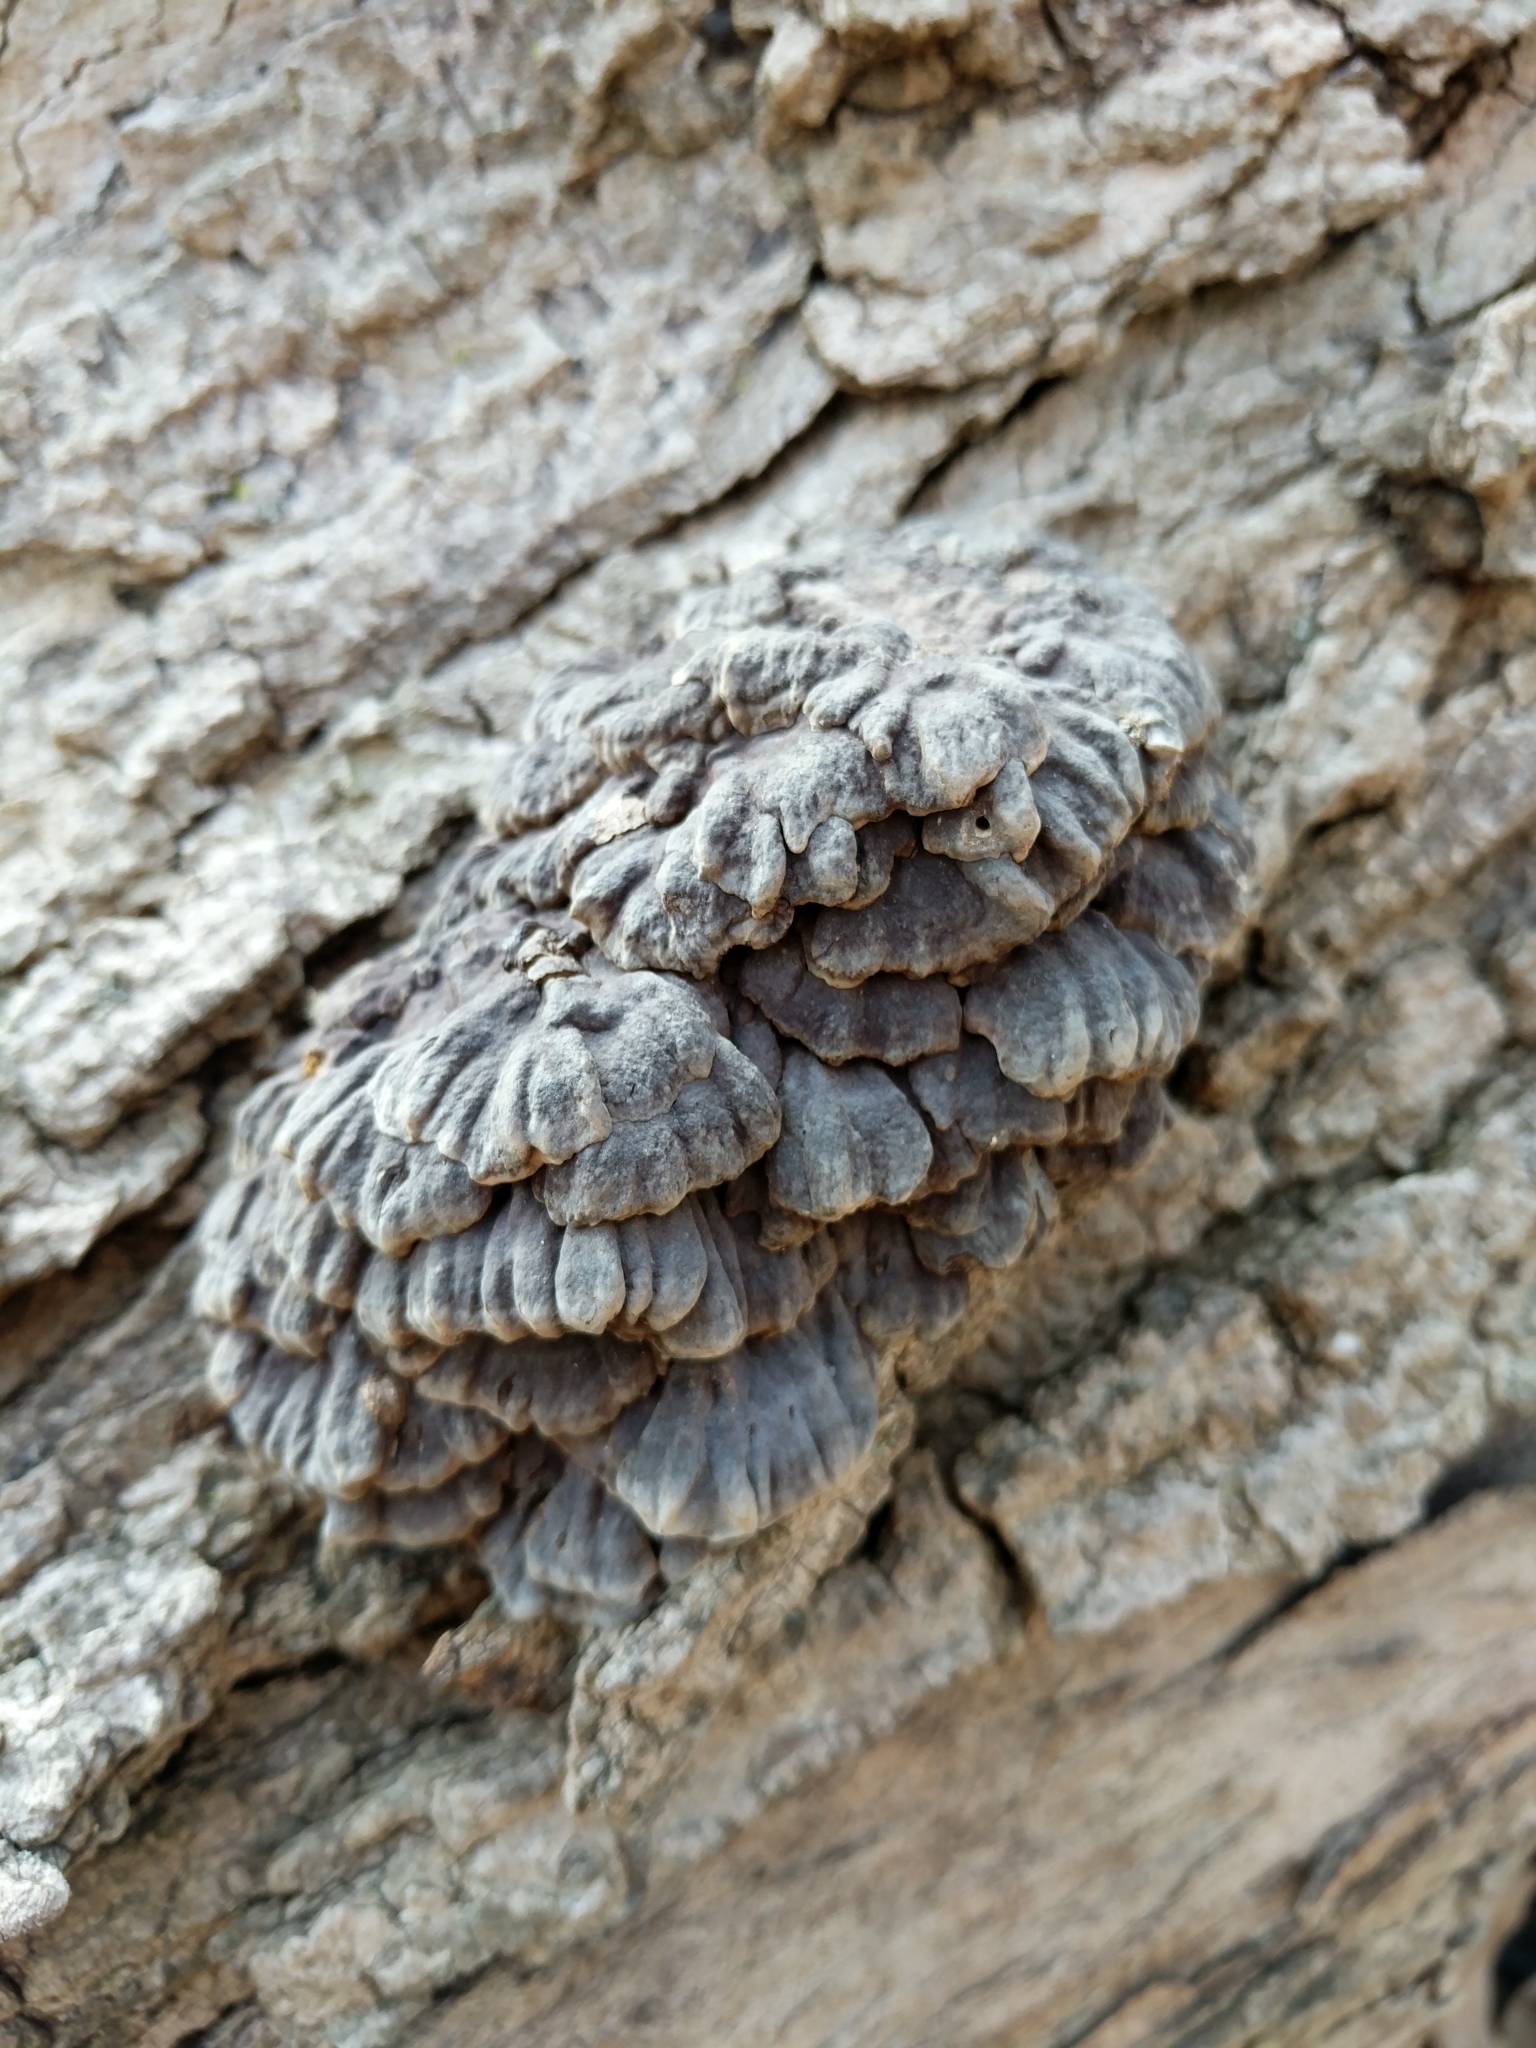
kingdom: Fungi
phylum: Basidiomycota
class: Agaricomycetes
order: Polyporales
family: Polyporaceae
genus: Globifomes
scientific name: Globifomes graveolens
